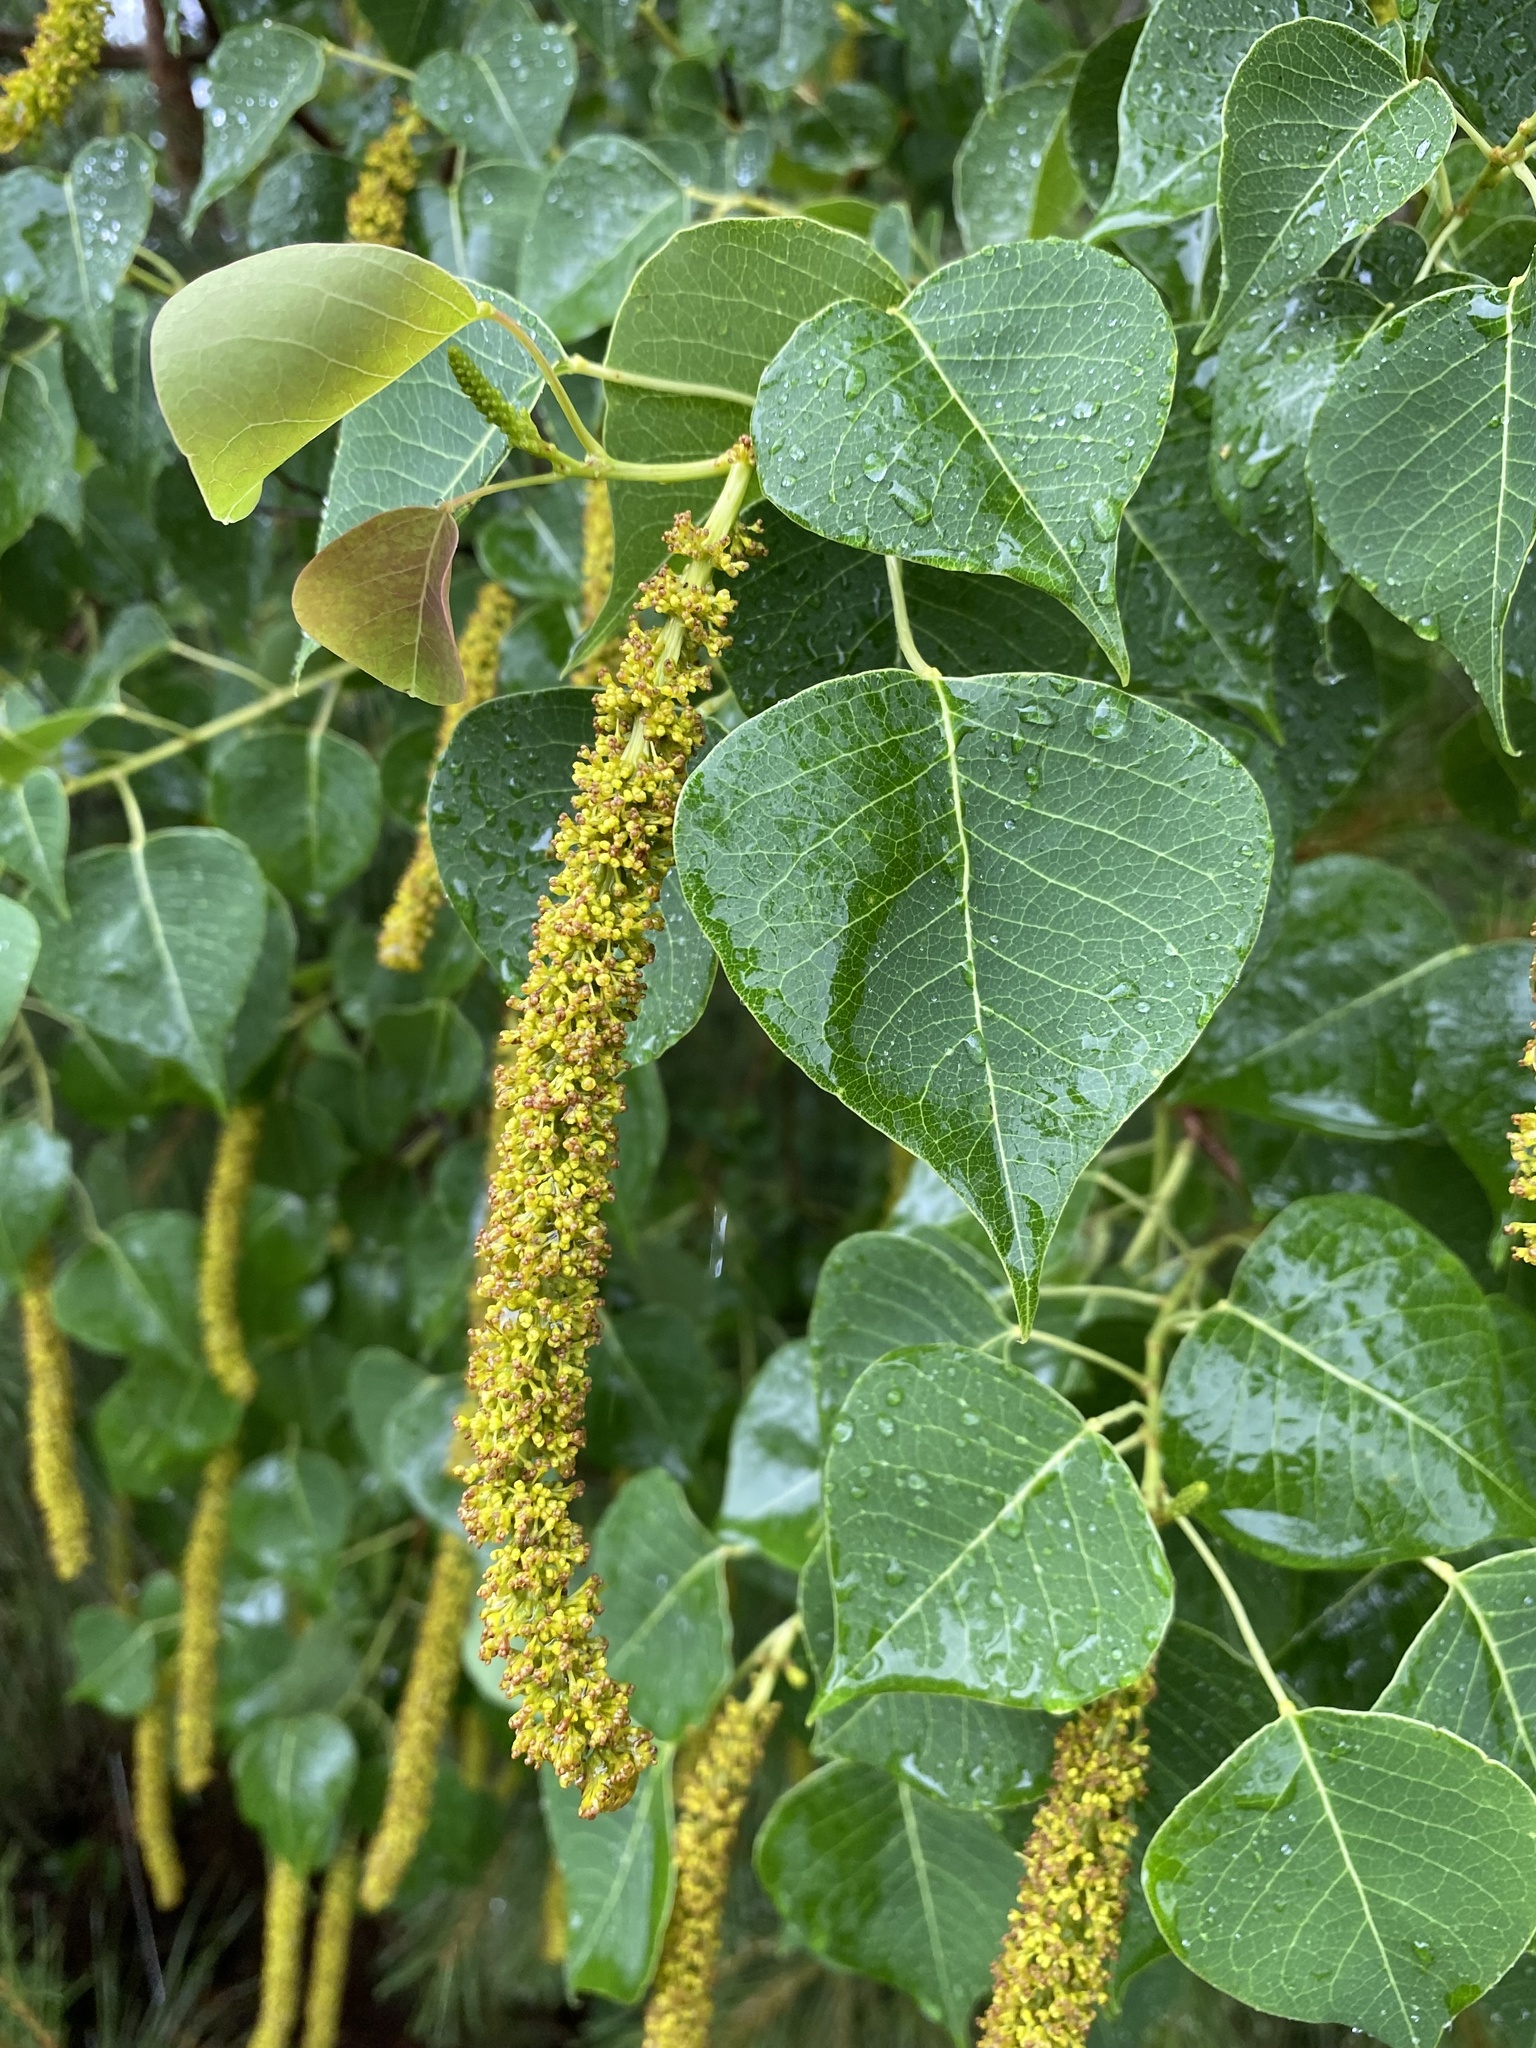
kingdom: Plantae
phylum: Tracheophyta
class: Magnoliopsida
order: Malpighiales
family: Euphorbiaceae
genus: Triadica
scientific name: Triadica sebifera
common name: Chinese tallow
